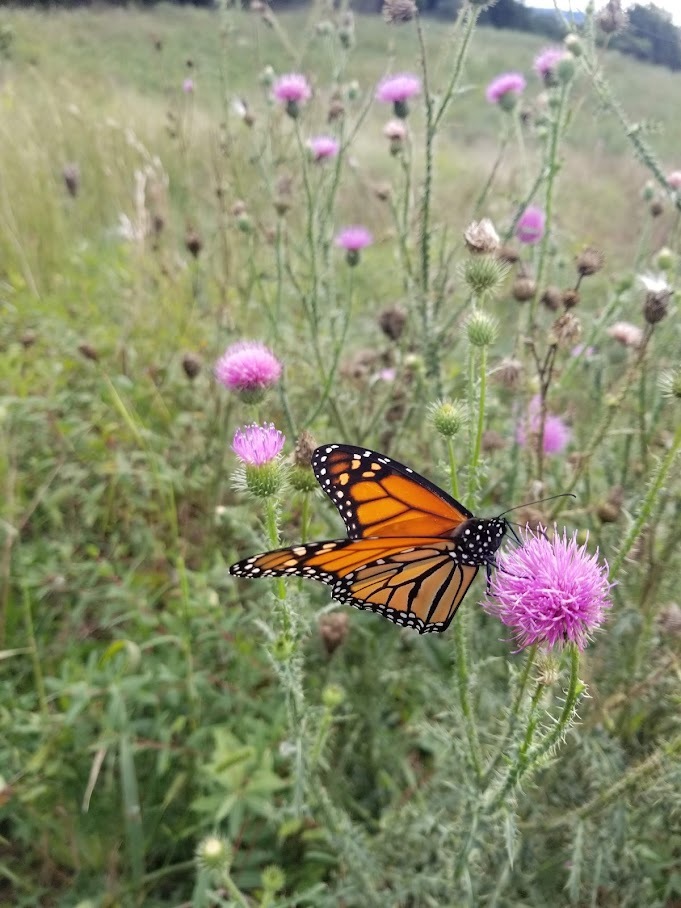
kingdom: Animalia
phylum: Arthropoda
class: Insecta
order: Lepidoptera
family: Nymphalidae
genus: Danaus
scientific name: Danaus plexippus
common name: Monarch
